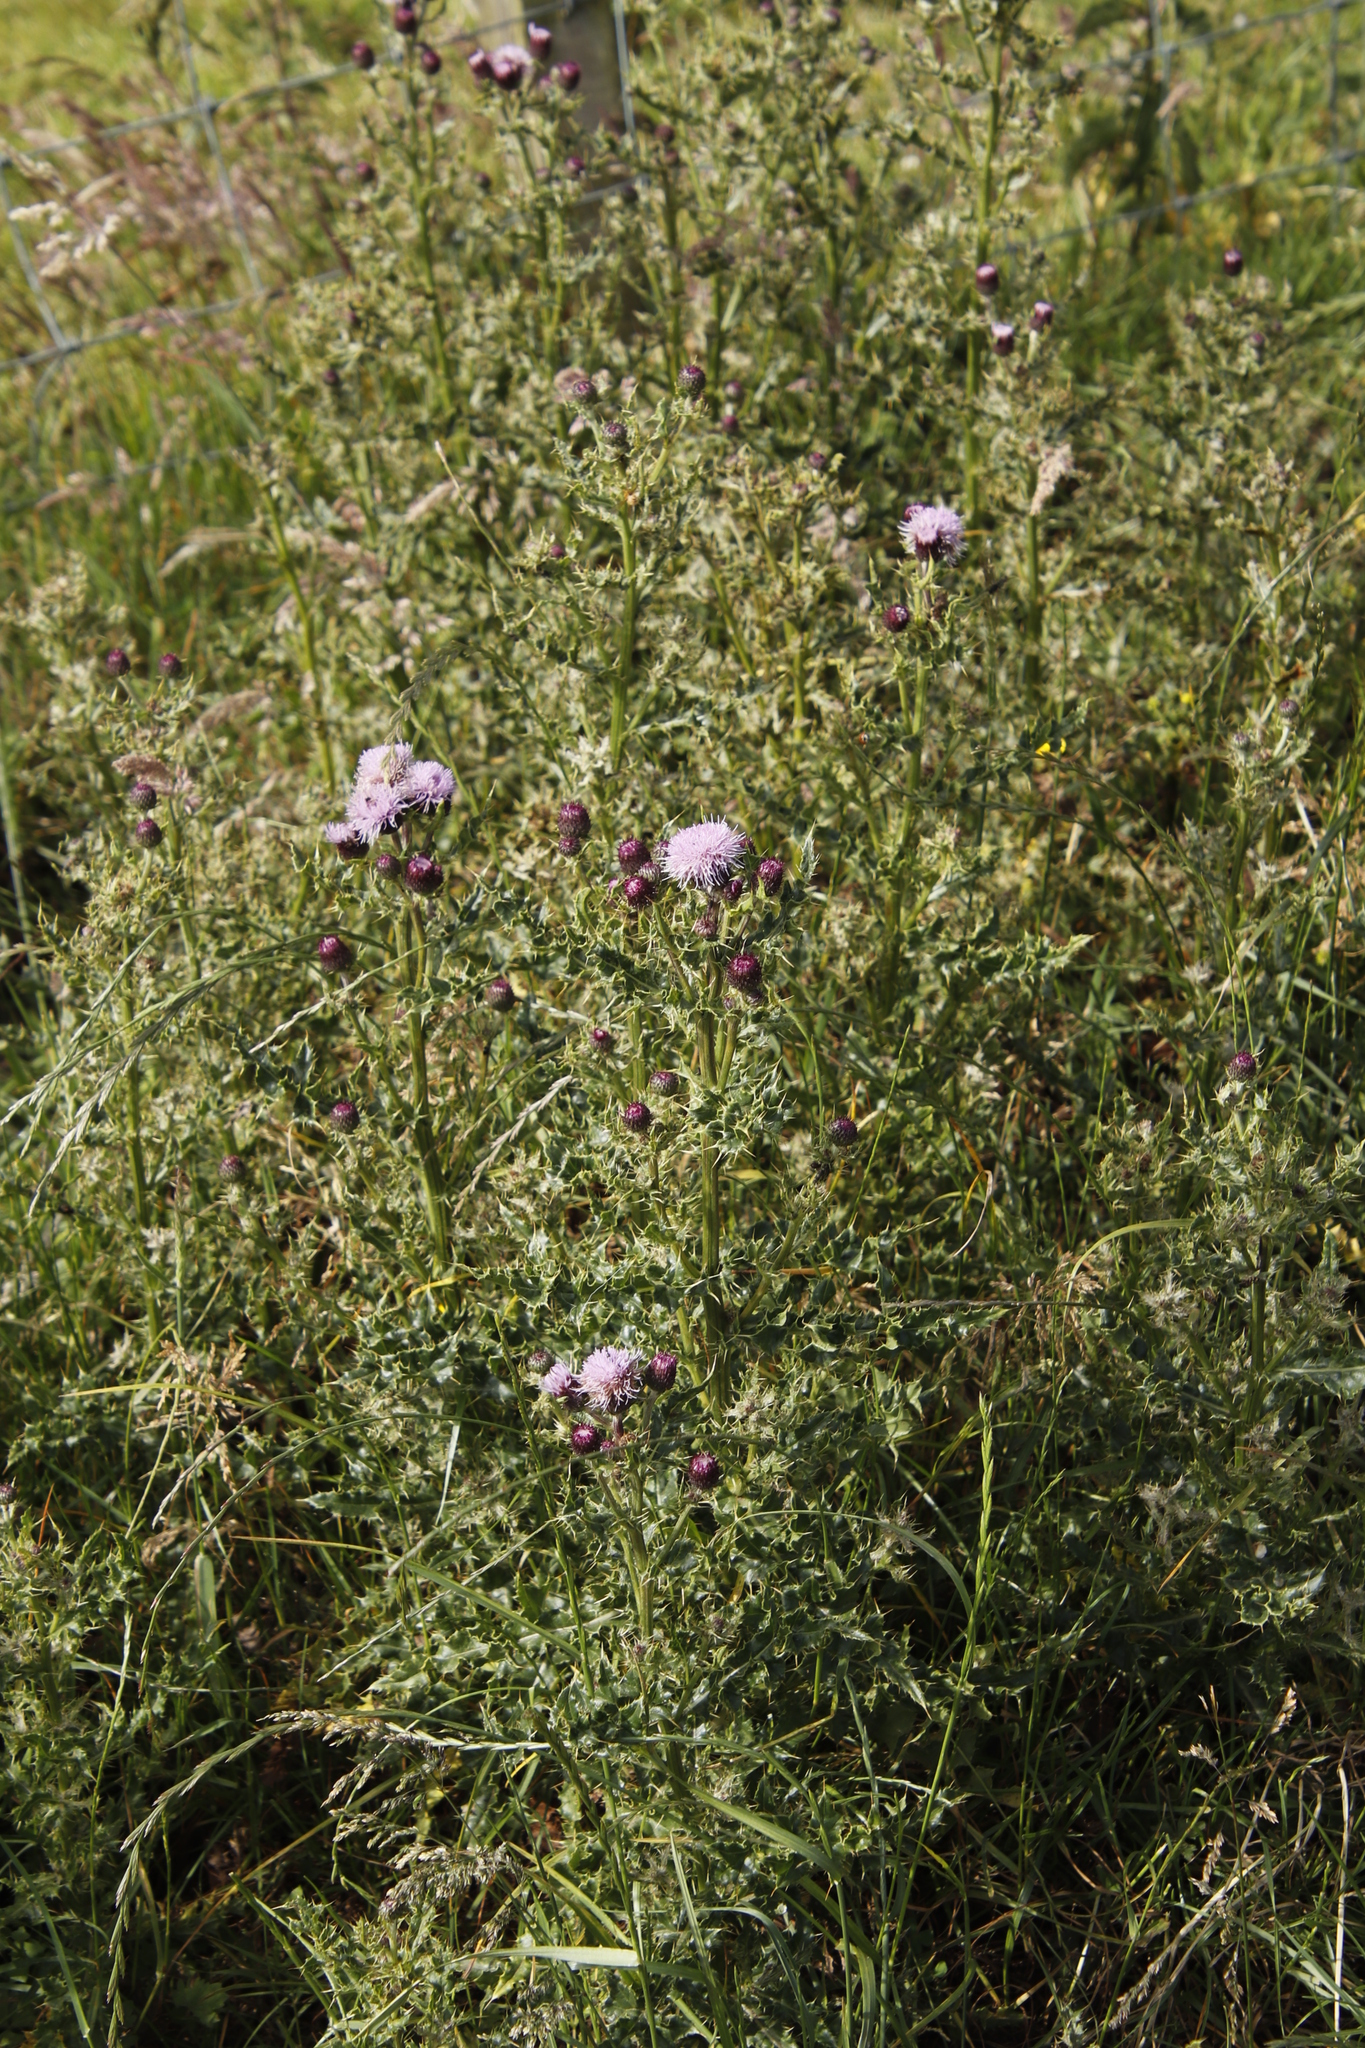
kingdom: Plantae
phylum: Tracheophyta
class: Magnoliopsida
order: Asterales
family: Asteraceae
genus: Cirsium
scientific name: Cirsium arvense
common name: Creeping thistle
